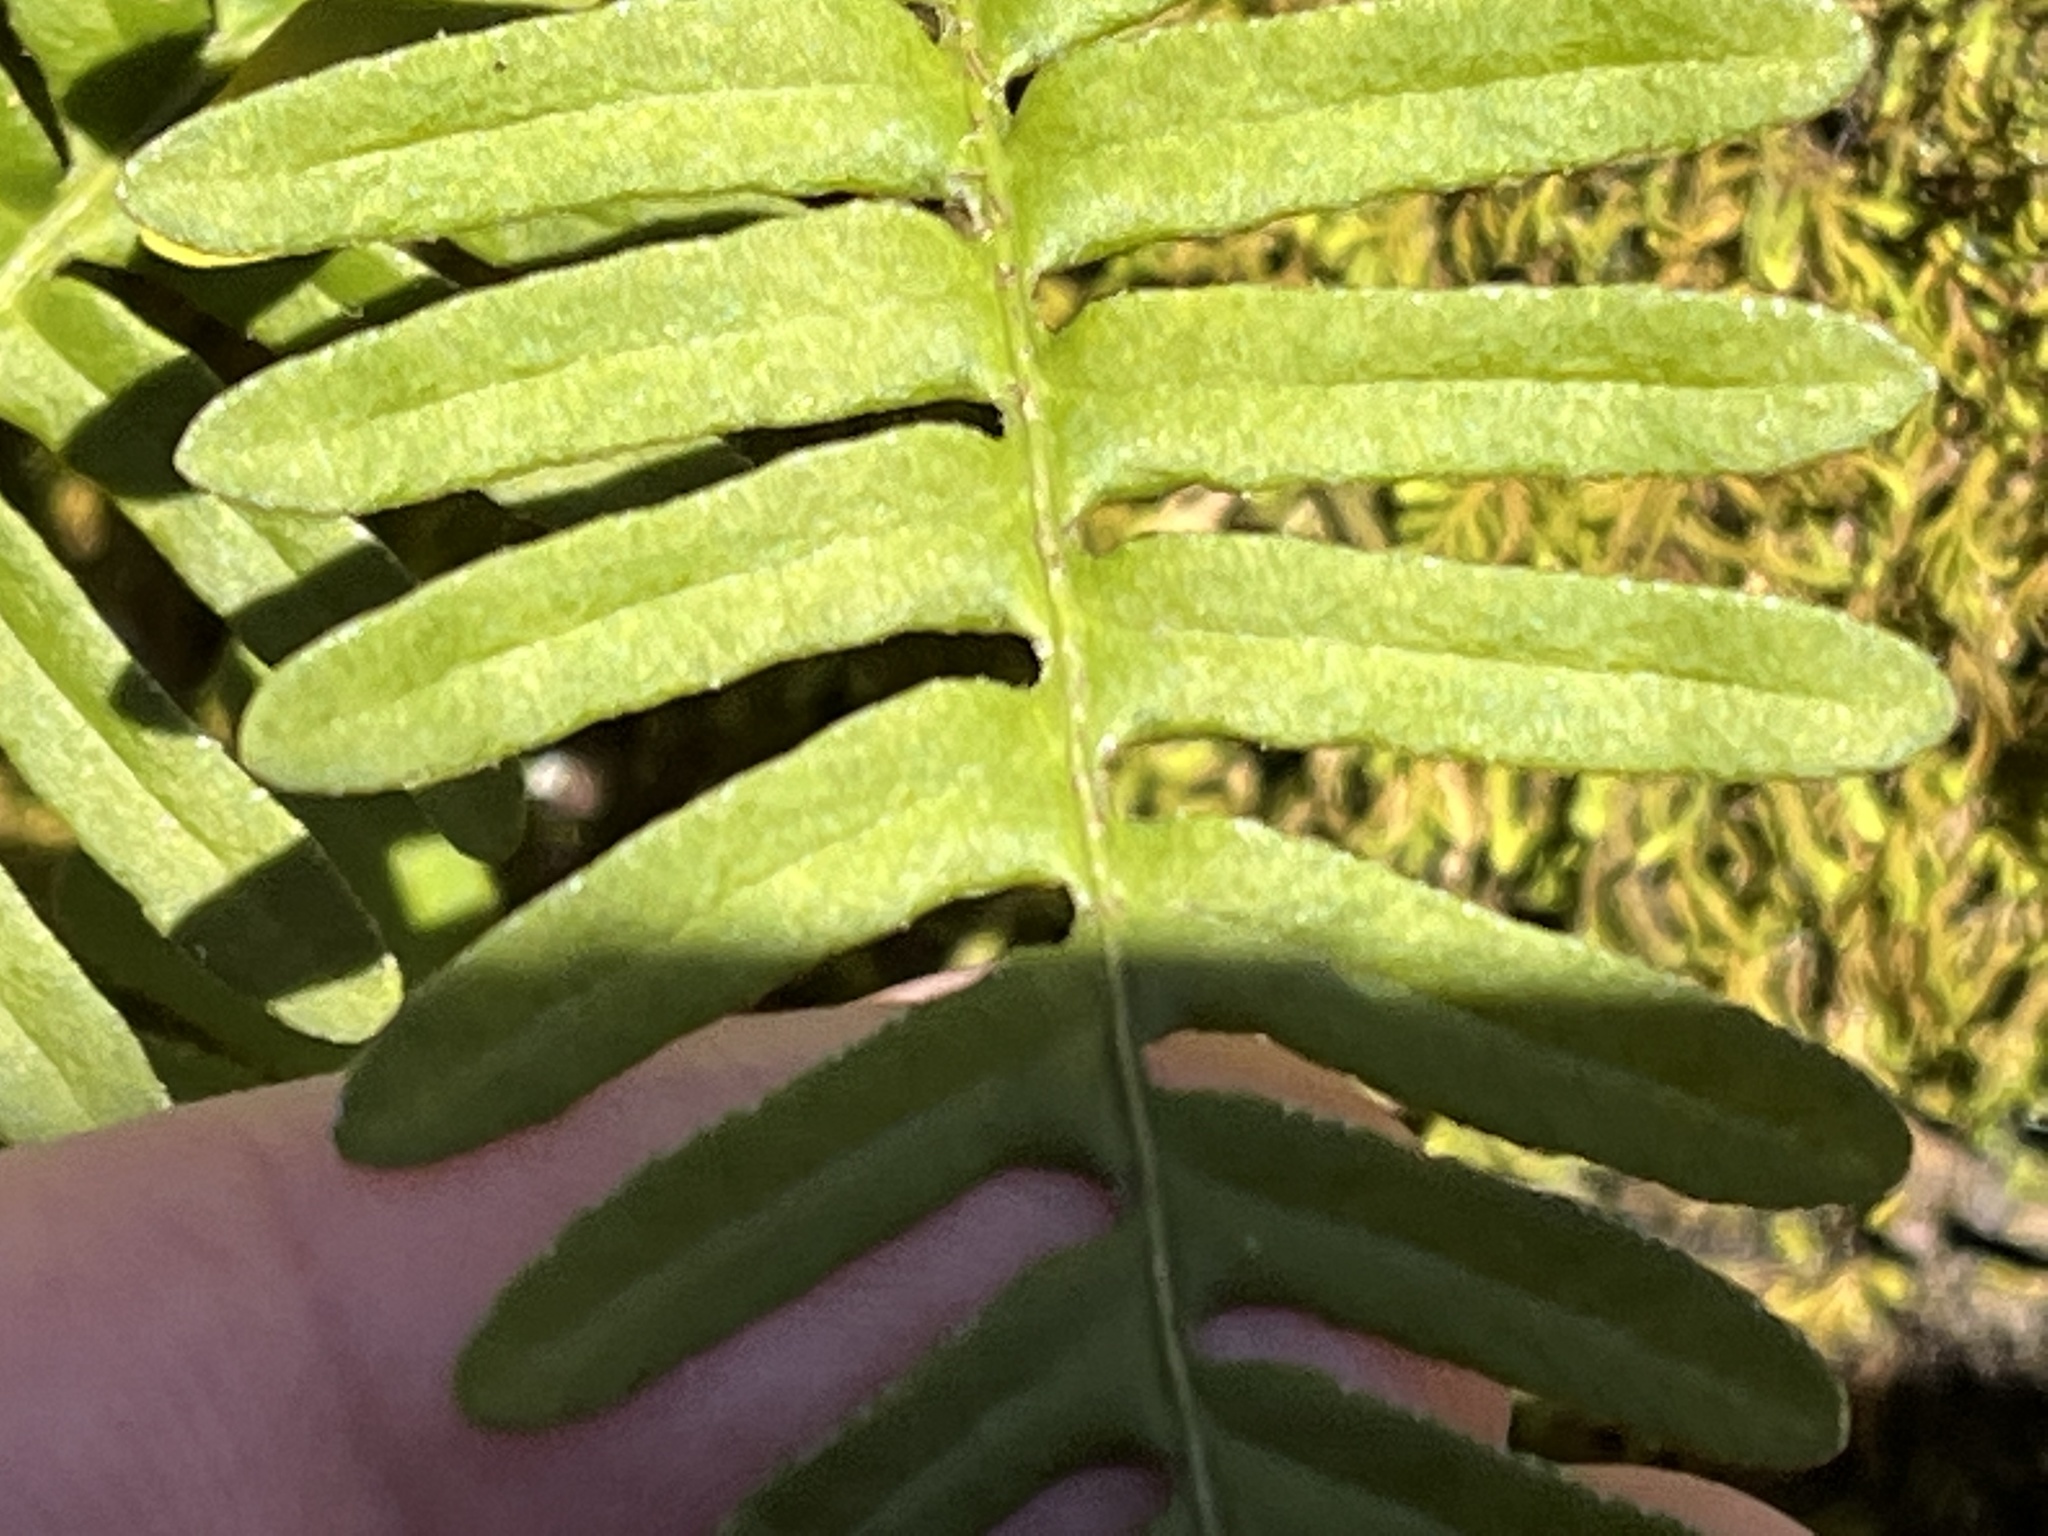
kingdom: Plantae
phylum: Tracheophyta
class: Polypodiopsida
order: Polypodiales
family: Polypodiaceae
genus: Pleopeltis
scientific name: Pleopeltis michauxiana
